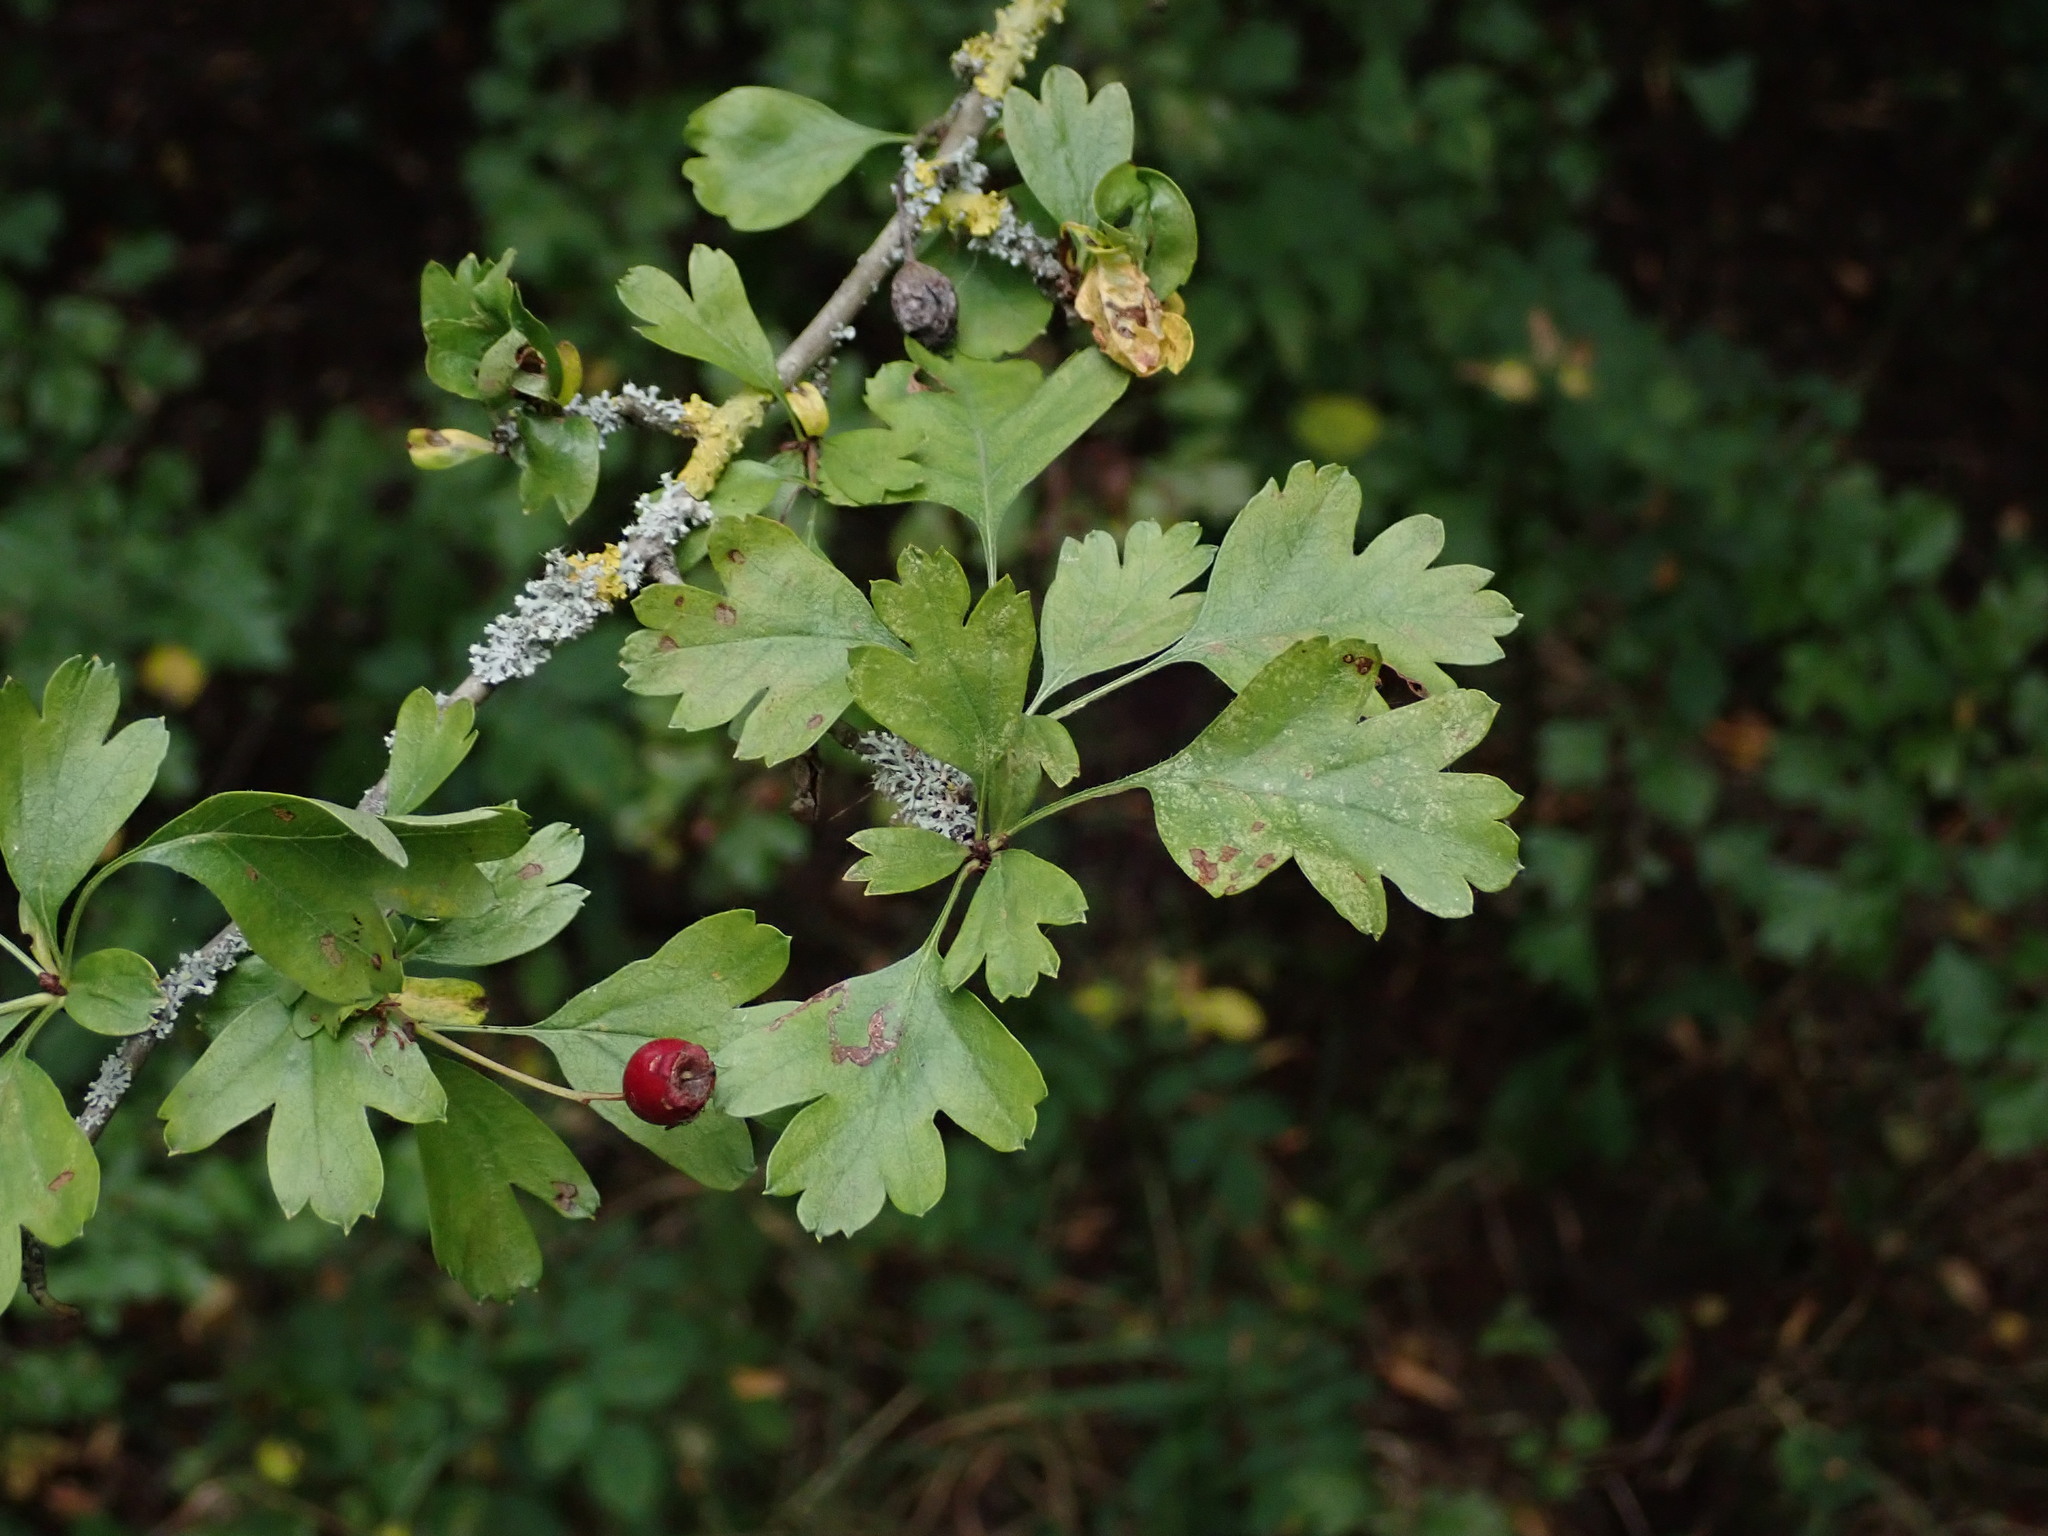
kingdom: Plantae
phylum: Tracheophyta
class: Magnoliopsida
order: Rosales
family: Rosaceae
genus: Crataegus
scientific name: Crataegus monogyna
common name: Hawthorn
